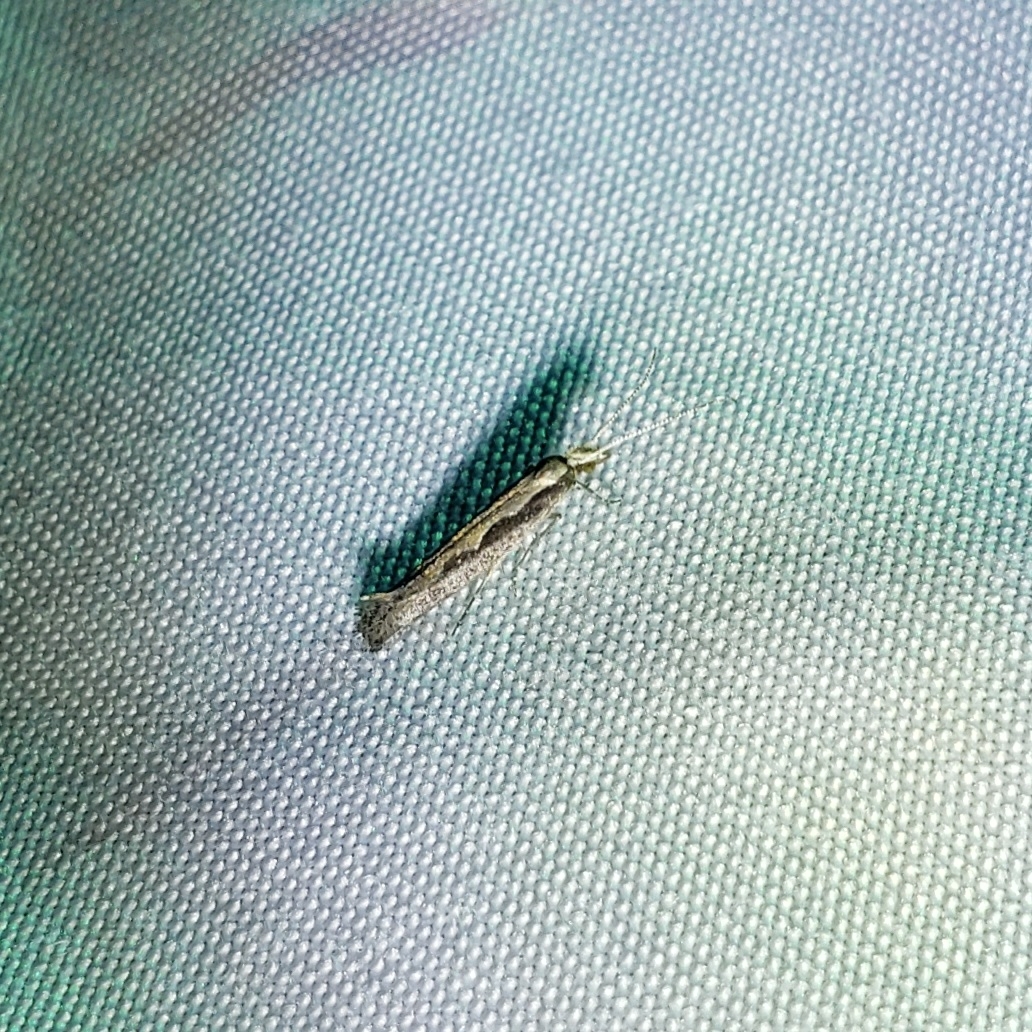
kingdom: Animalia
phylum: Arthropoda
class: Insecta
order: Lepidoptera
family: Plutellidae
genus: Plutella
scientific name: Plutella xylostella
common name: Diamond-back moth
